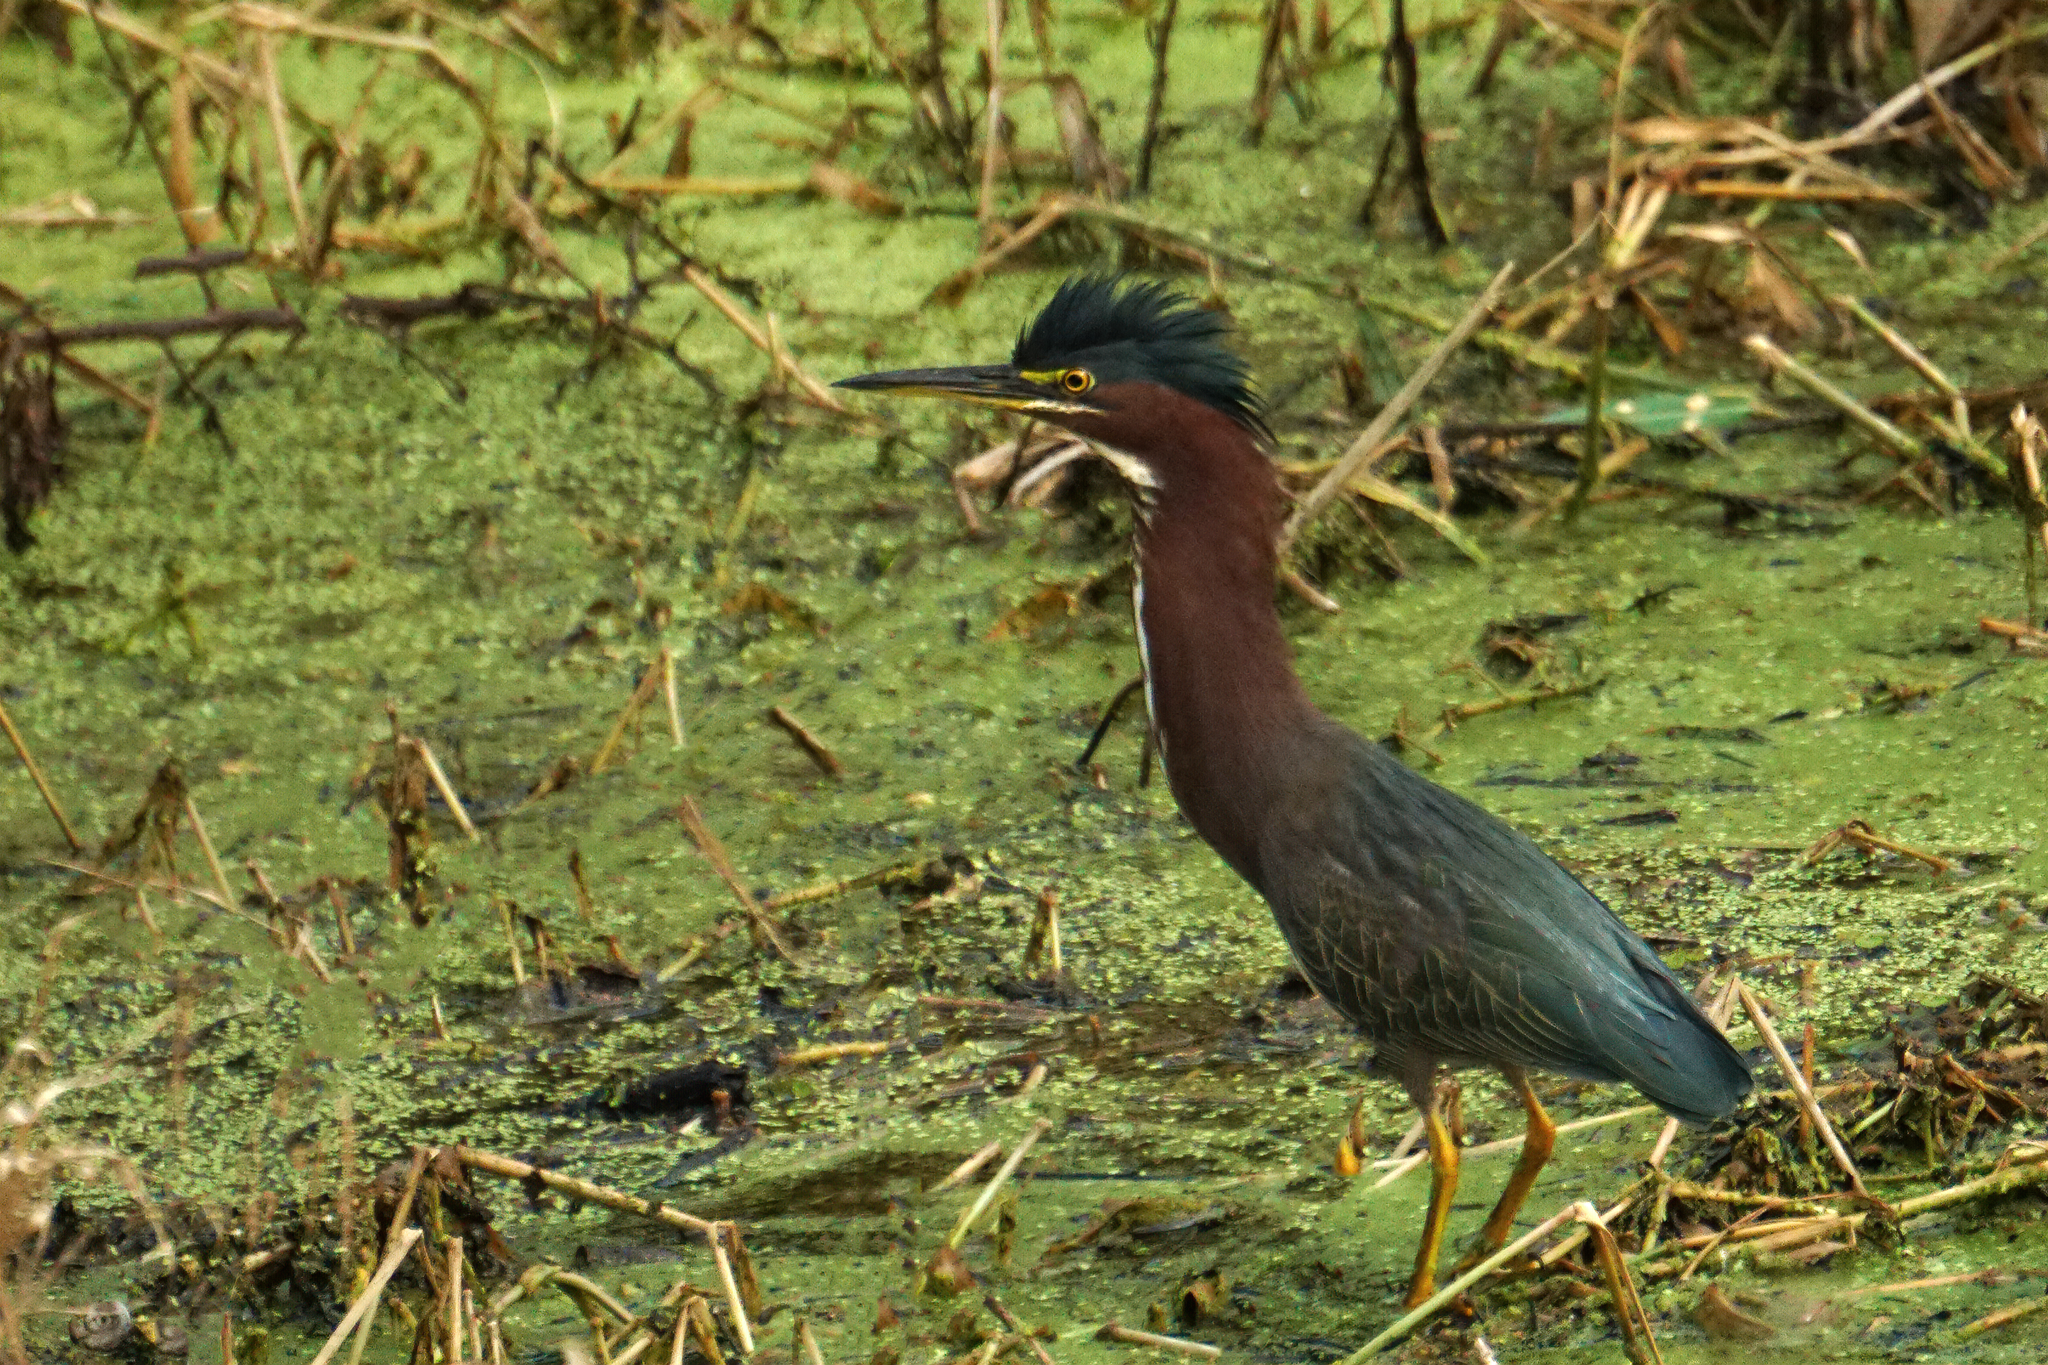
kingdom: Animalia
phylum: Chordata
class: Aves
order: Pelecaniformes
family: Ardeidae
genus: Butorides
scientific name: Butorides virescens
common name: Green heron
